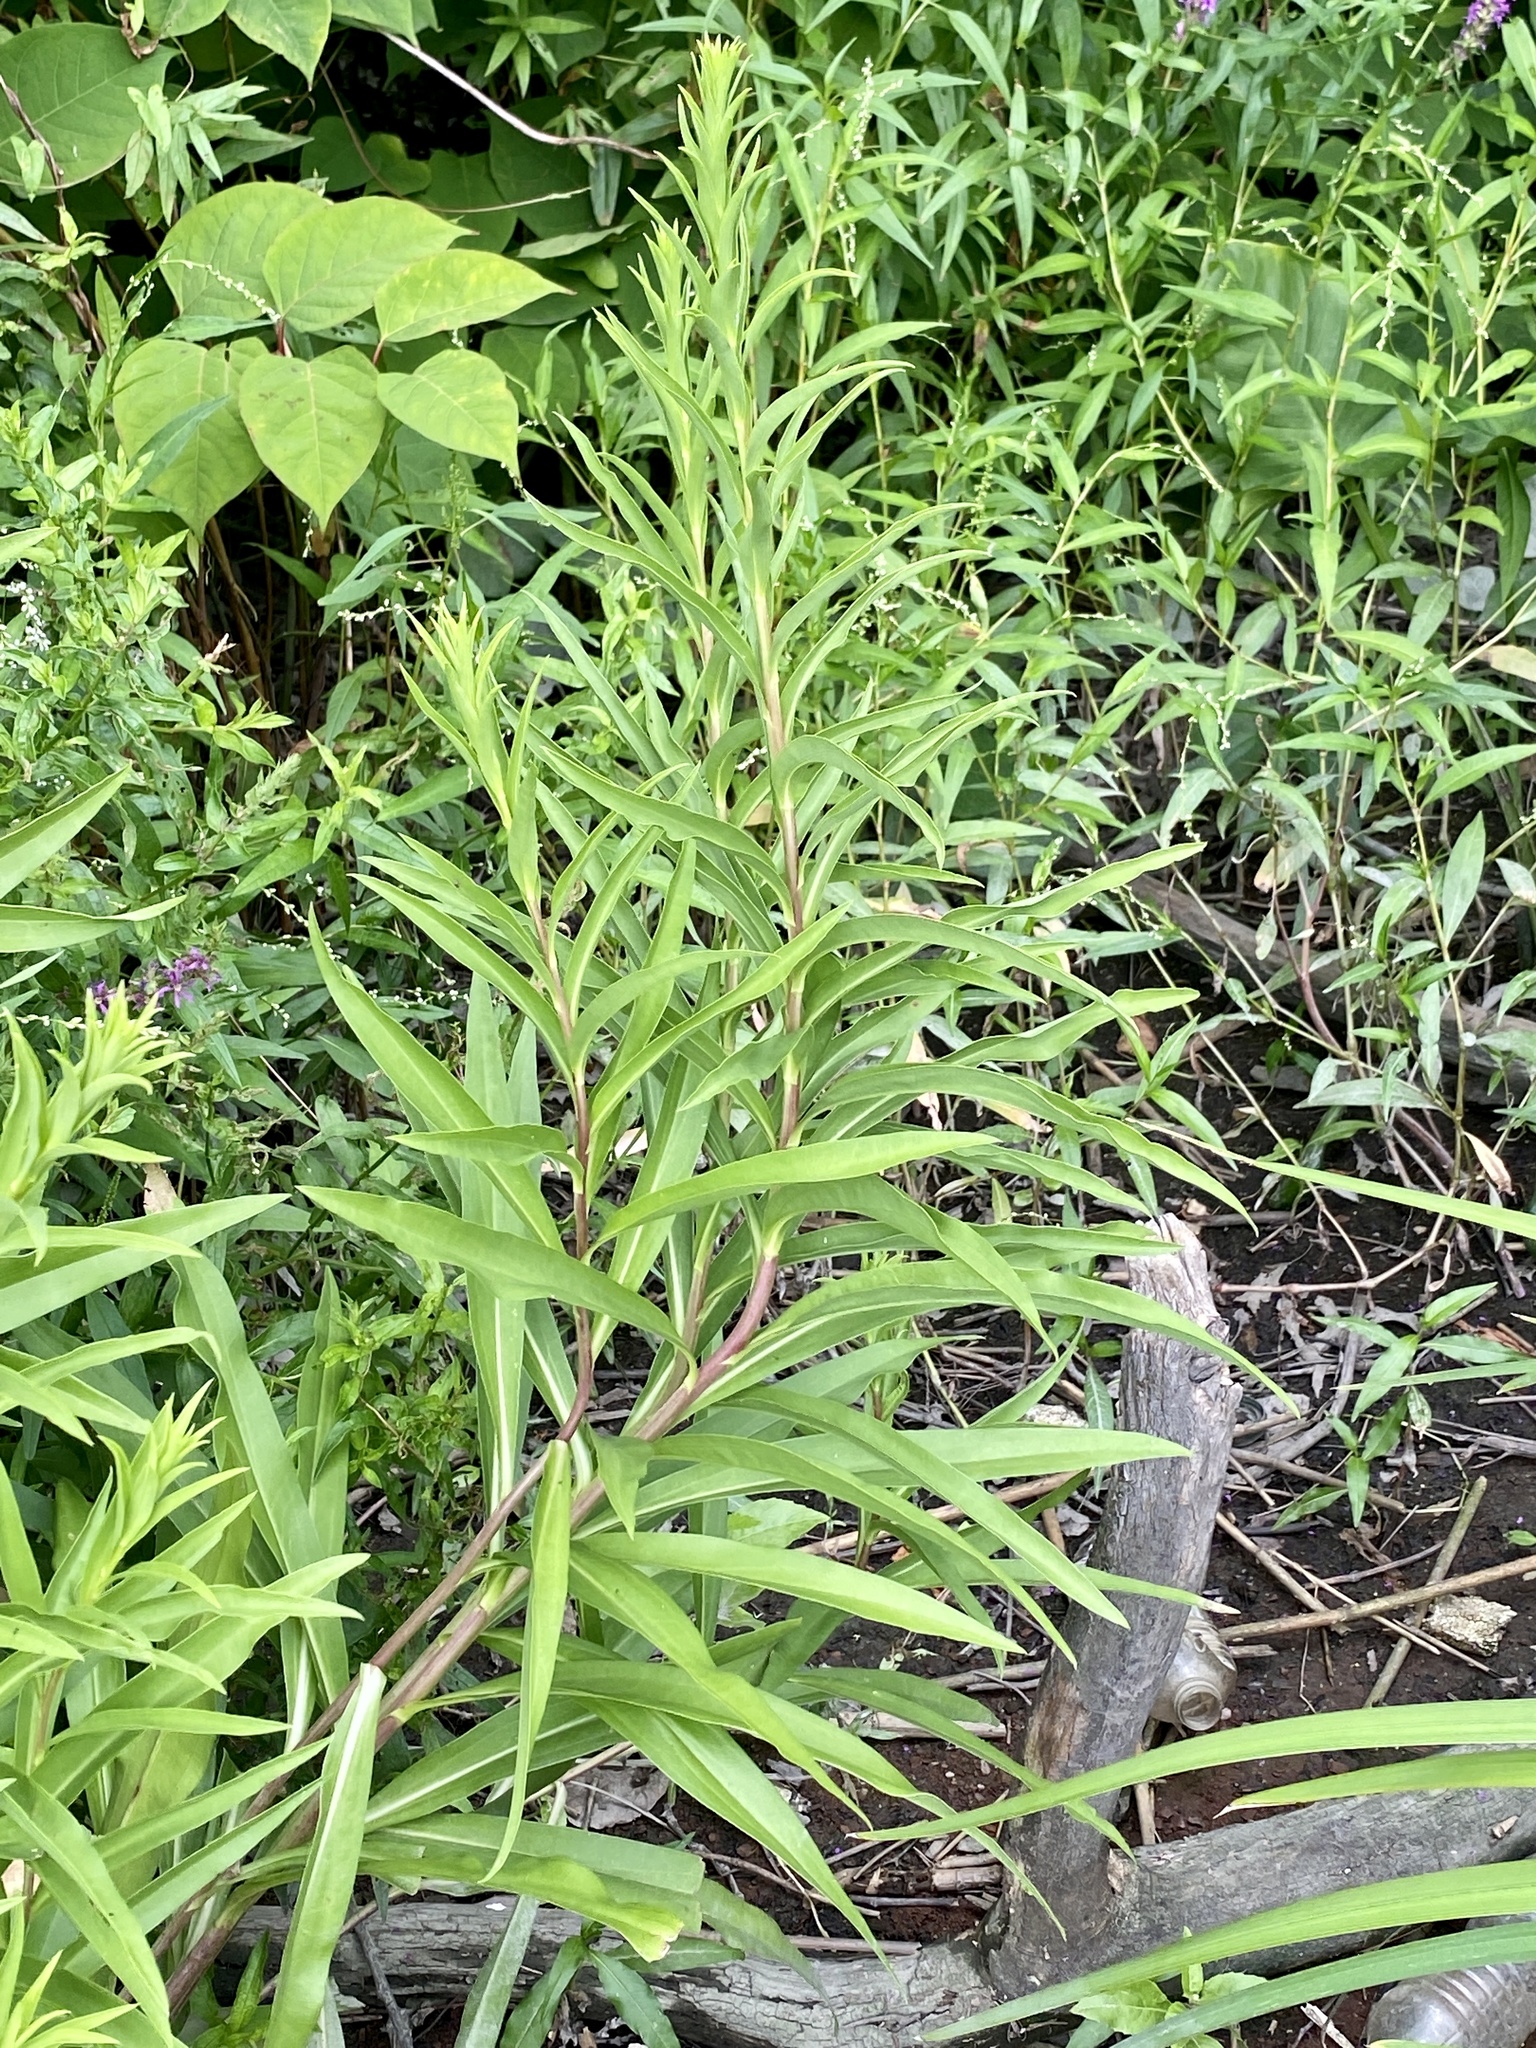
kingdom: Plantae
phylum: Tracheophyta
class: Magnoliopsida
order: Asterales
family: Asteraceae
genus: Solidago
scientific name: Solidago sempervirens
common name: Salt-marsh goldenrod
